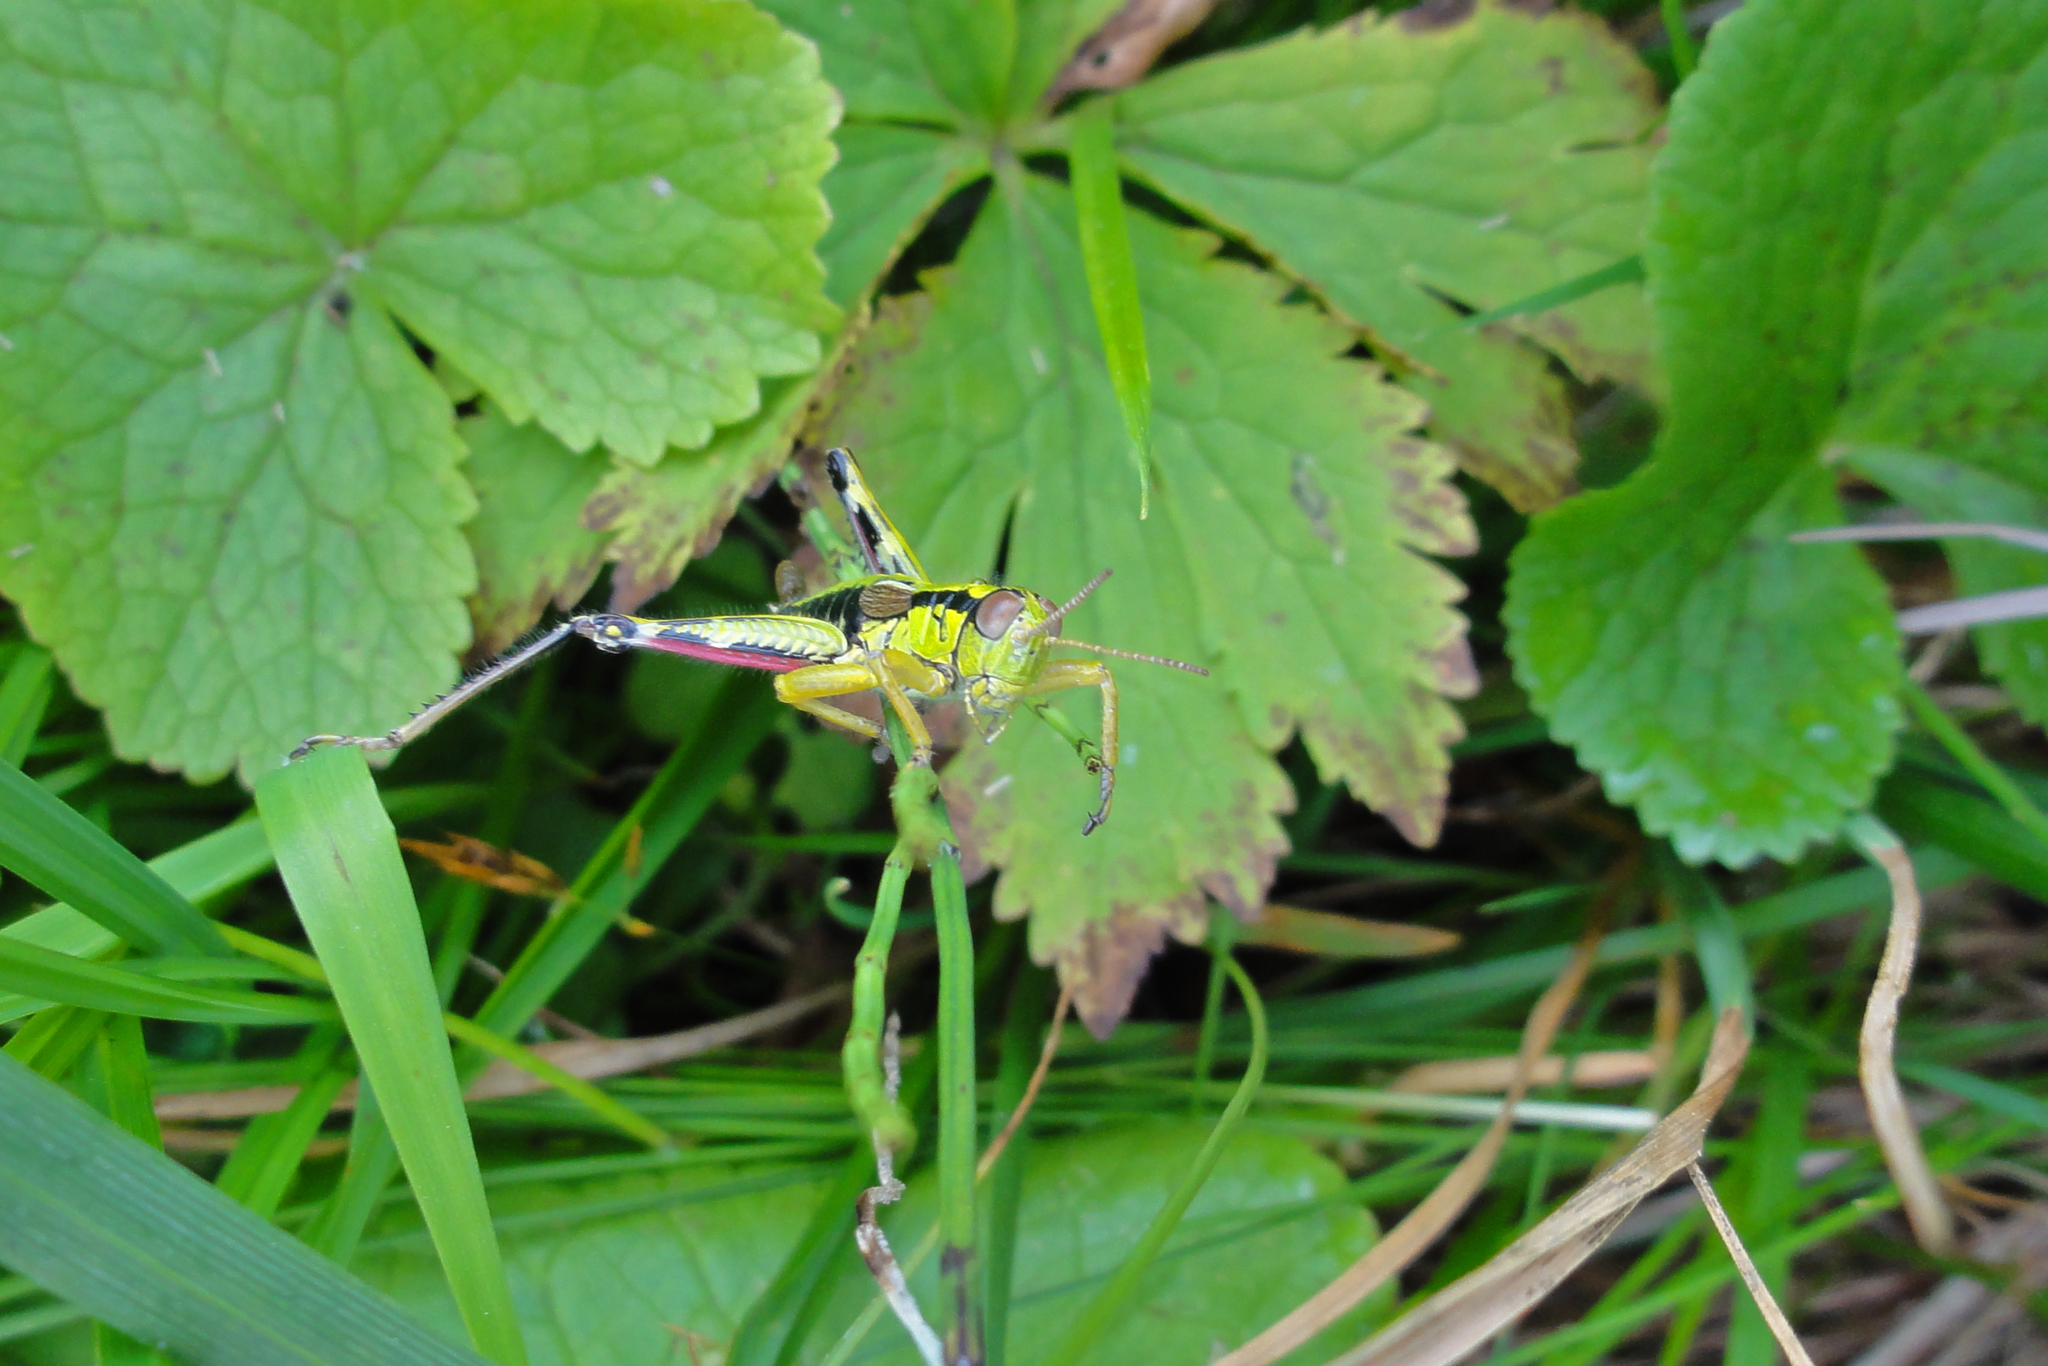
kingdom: Animalia
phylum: Arthropoda
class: Insecta
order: Orthoptera
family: Acrididae
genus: Miramella
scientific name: Miramella alpina
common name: Green mountain grasshopper
